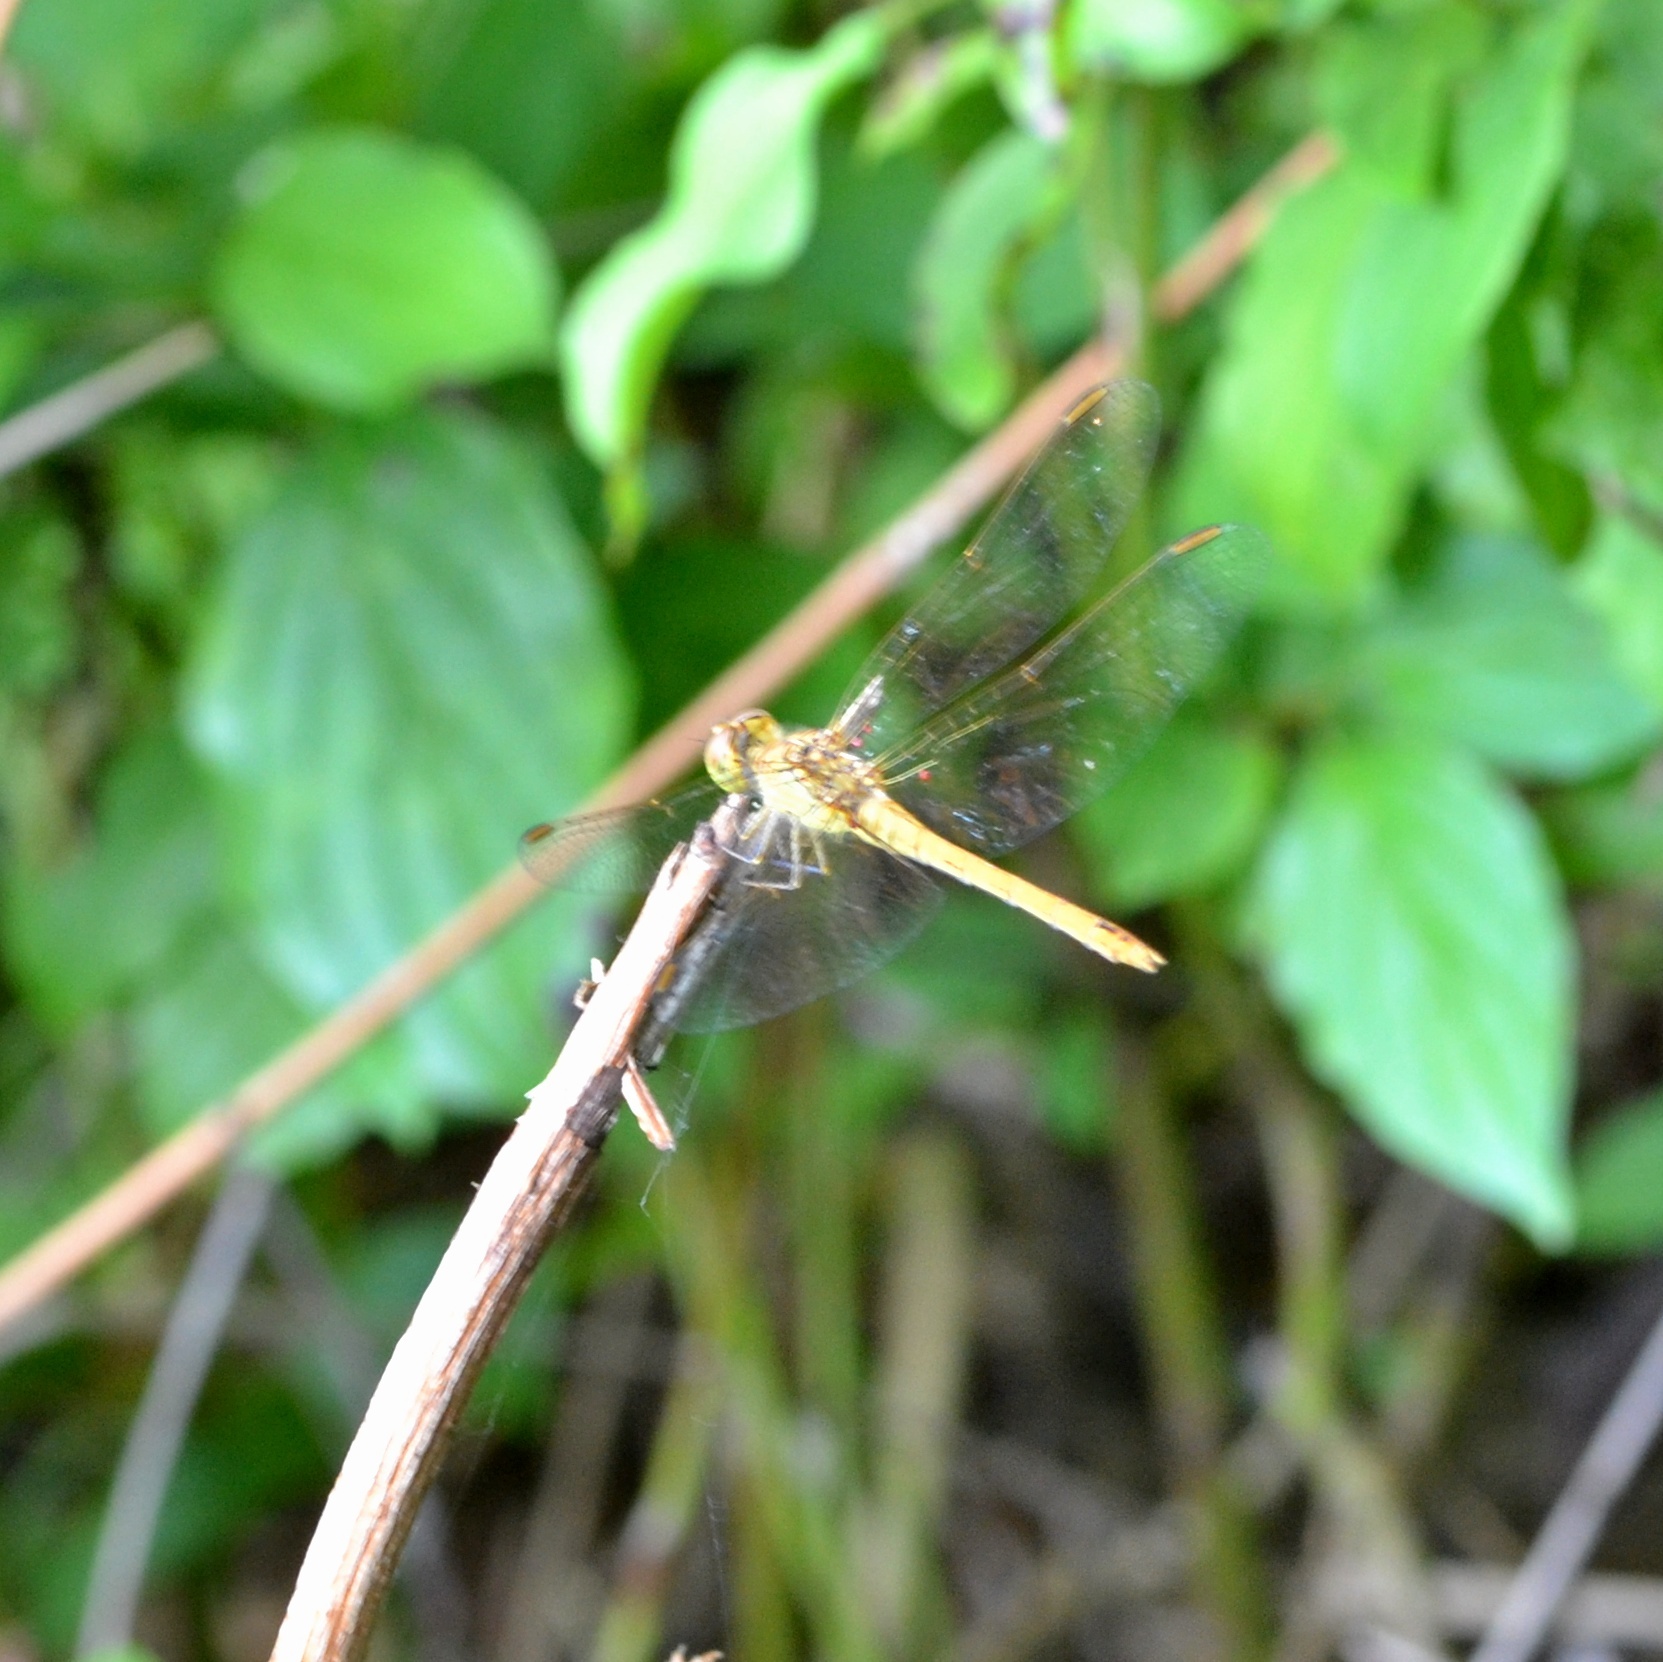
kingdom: Animalia
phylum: Arthropoda
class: Insecta
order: Odonata
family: Libellulidae
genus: Sympetrum
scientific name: Sympetrum meridionale
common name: Southern darter
